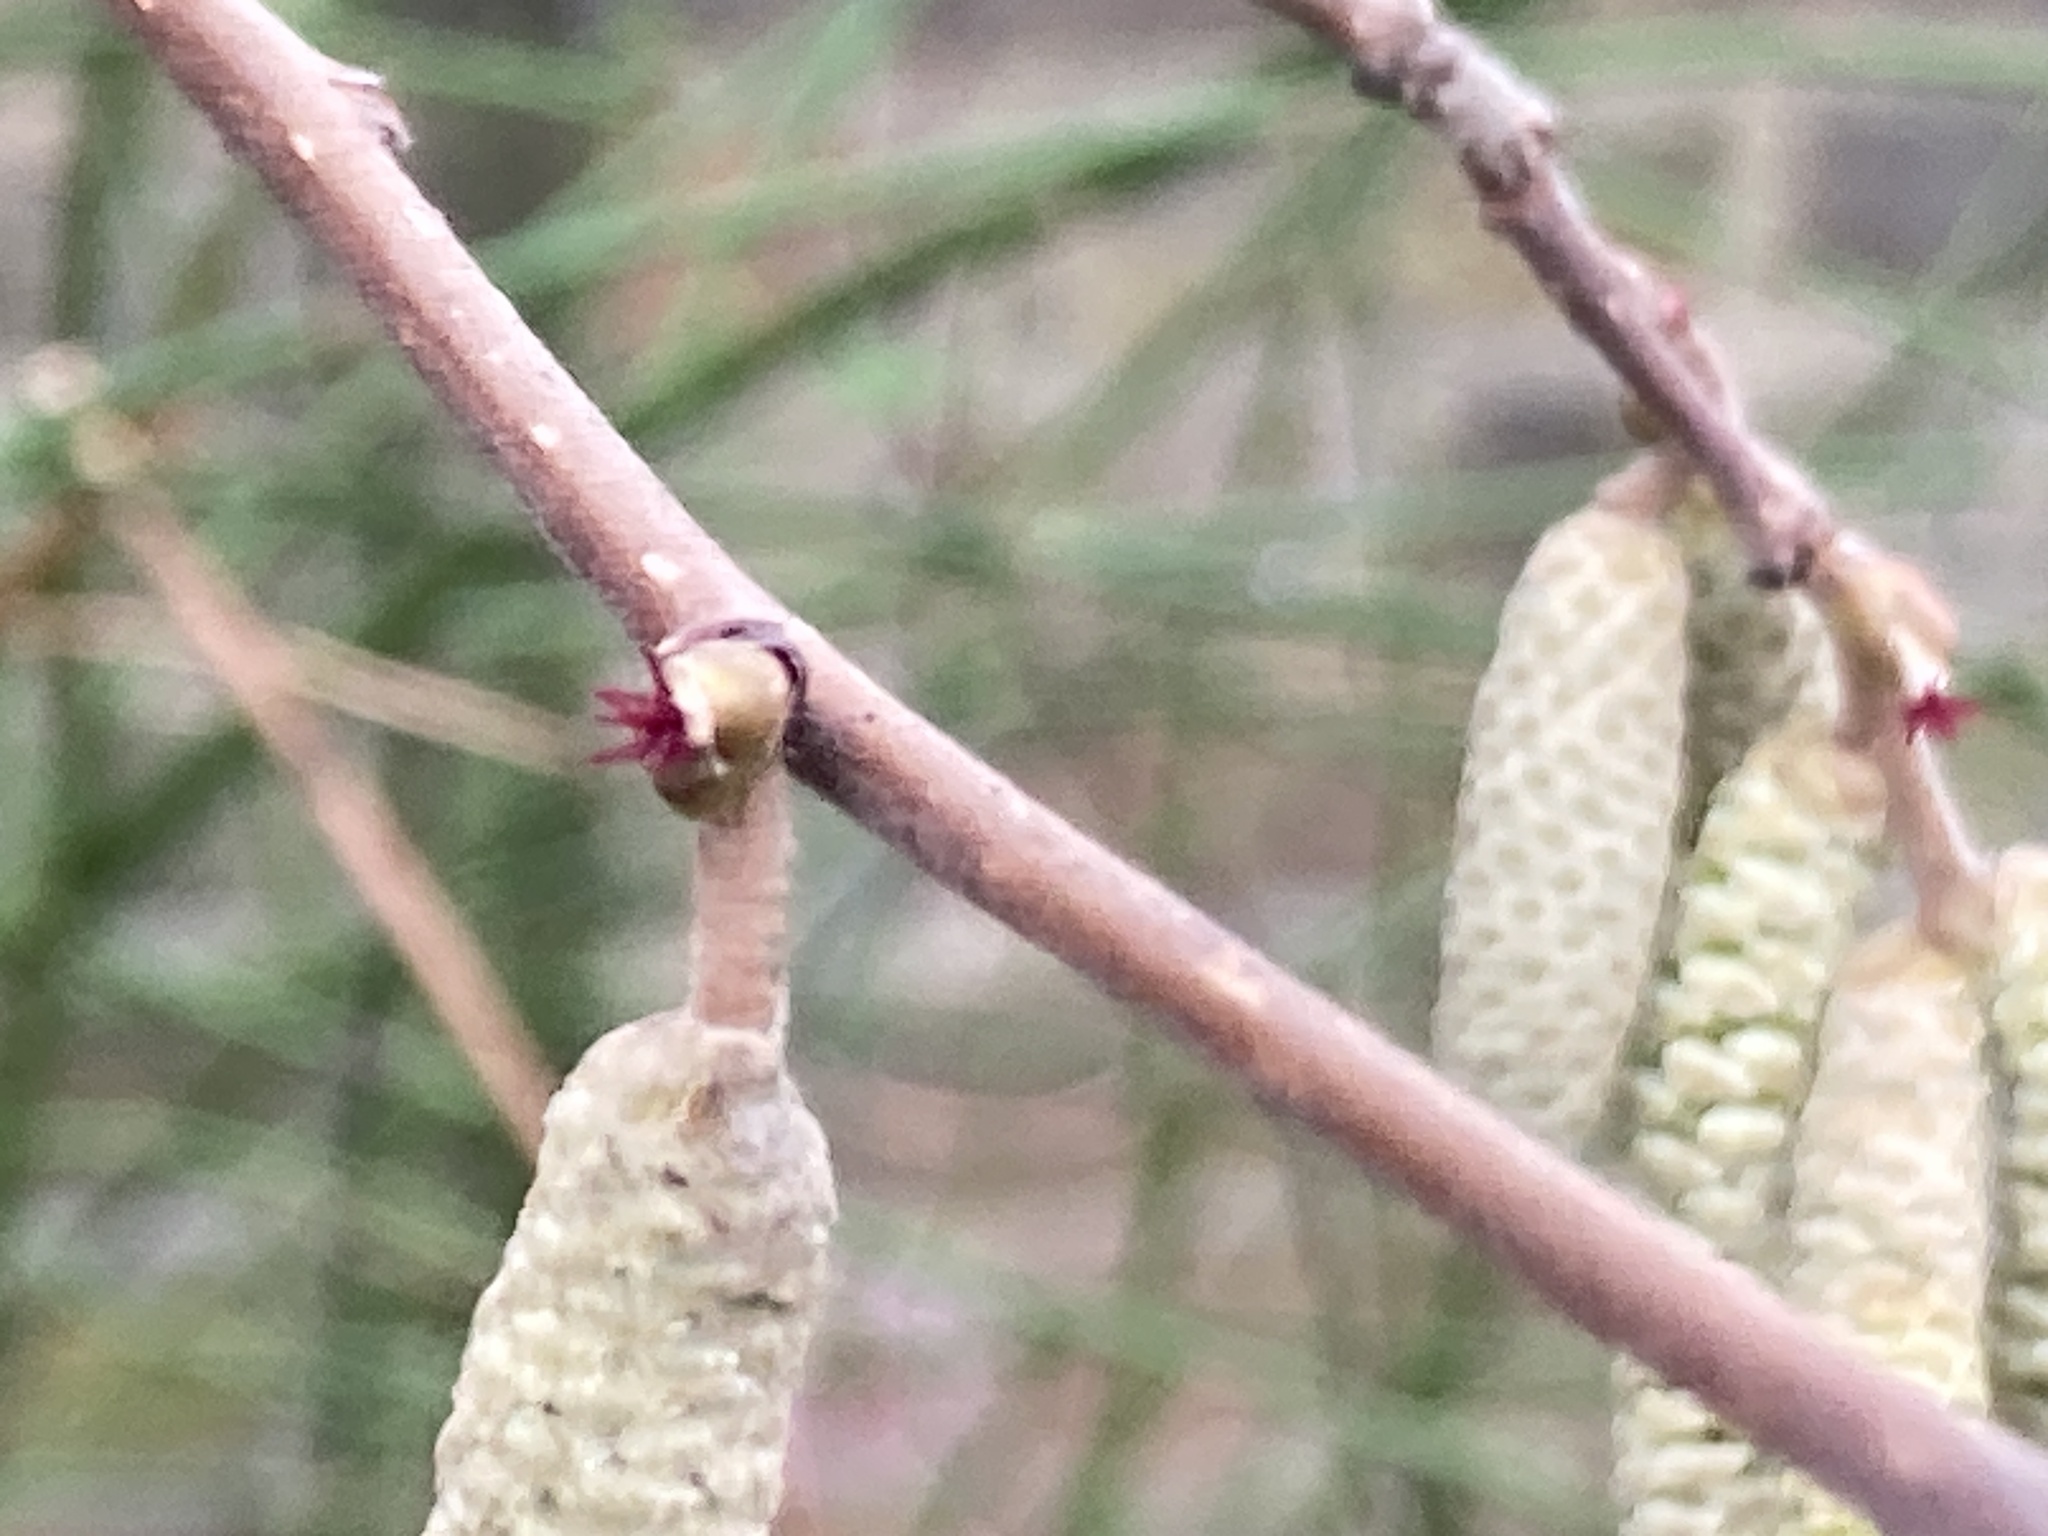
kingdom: Plantae
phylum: Tracheophyta
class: Magnoliopsida
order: Fagales
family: Betulaceae
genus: Corylus
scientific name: Corylus avellana
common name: European hazel
